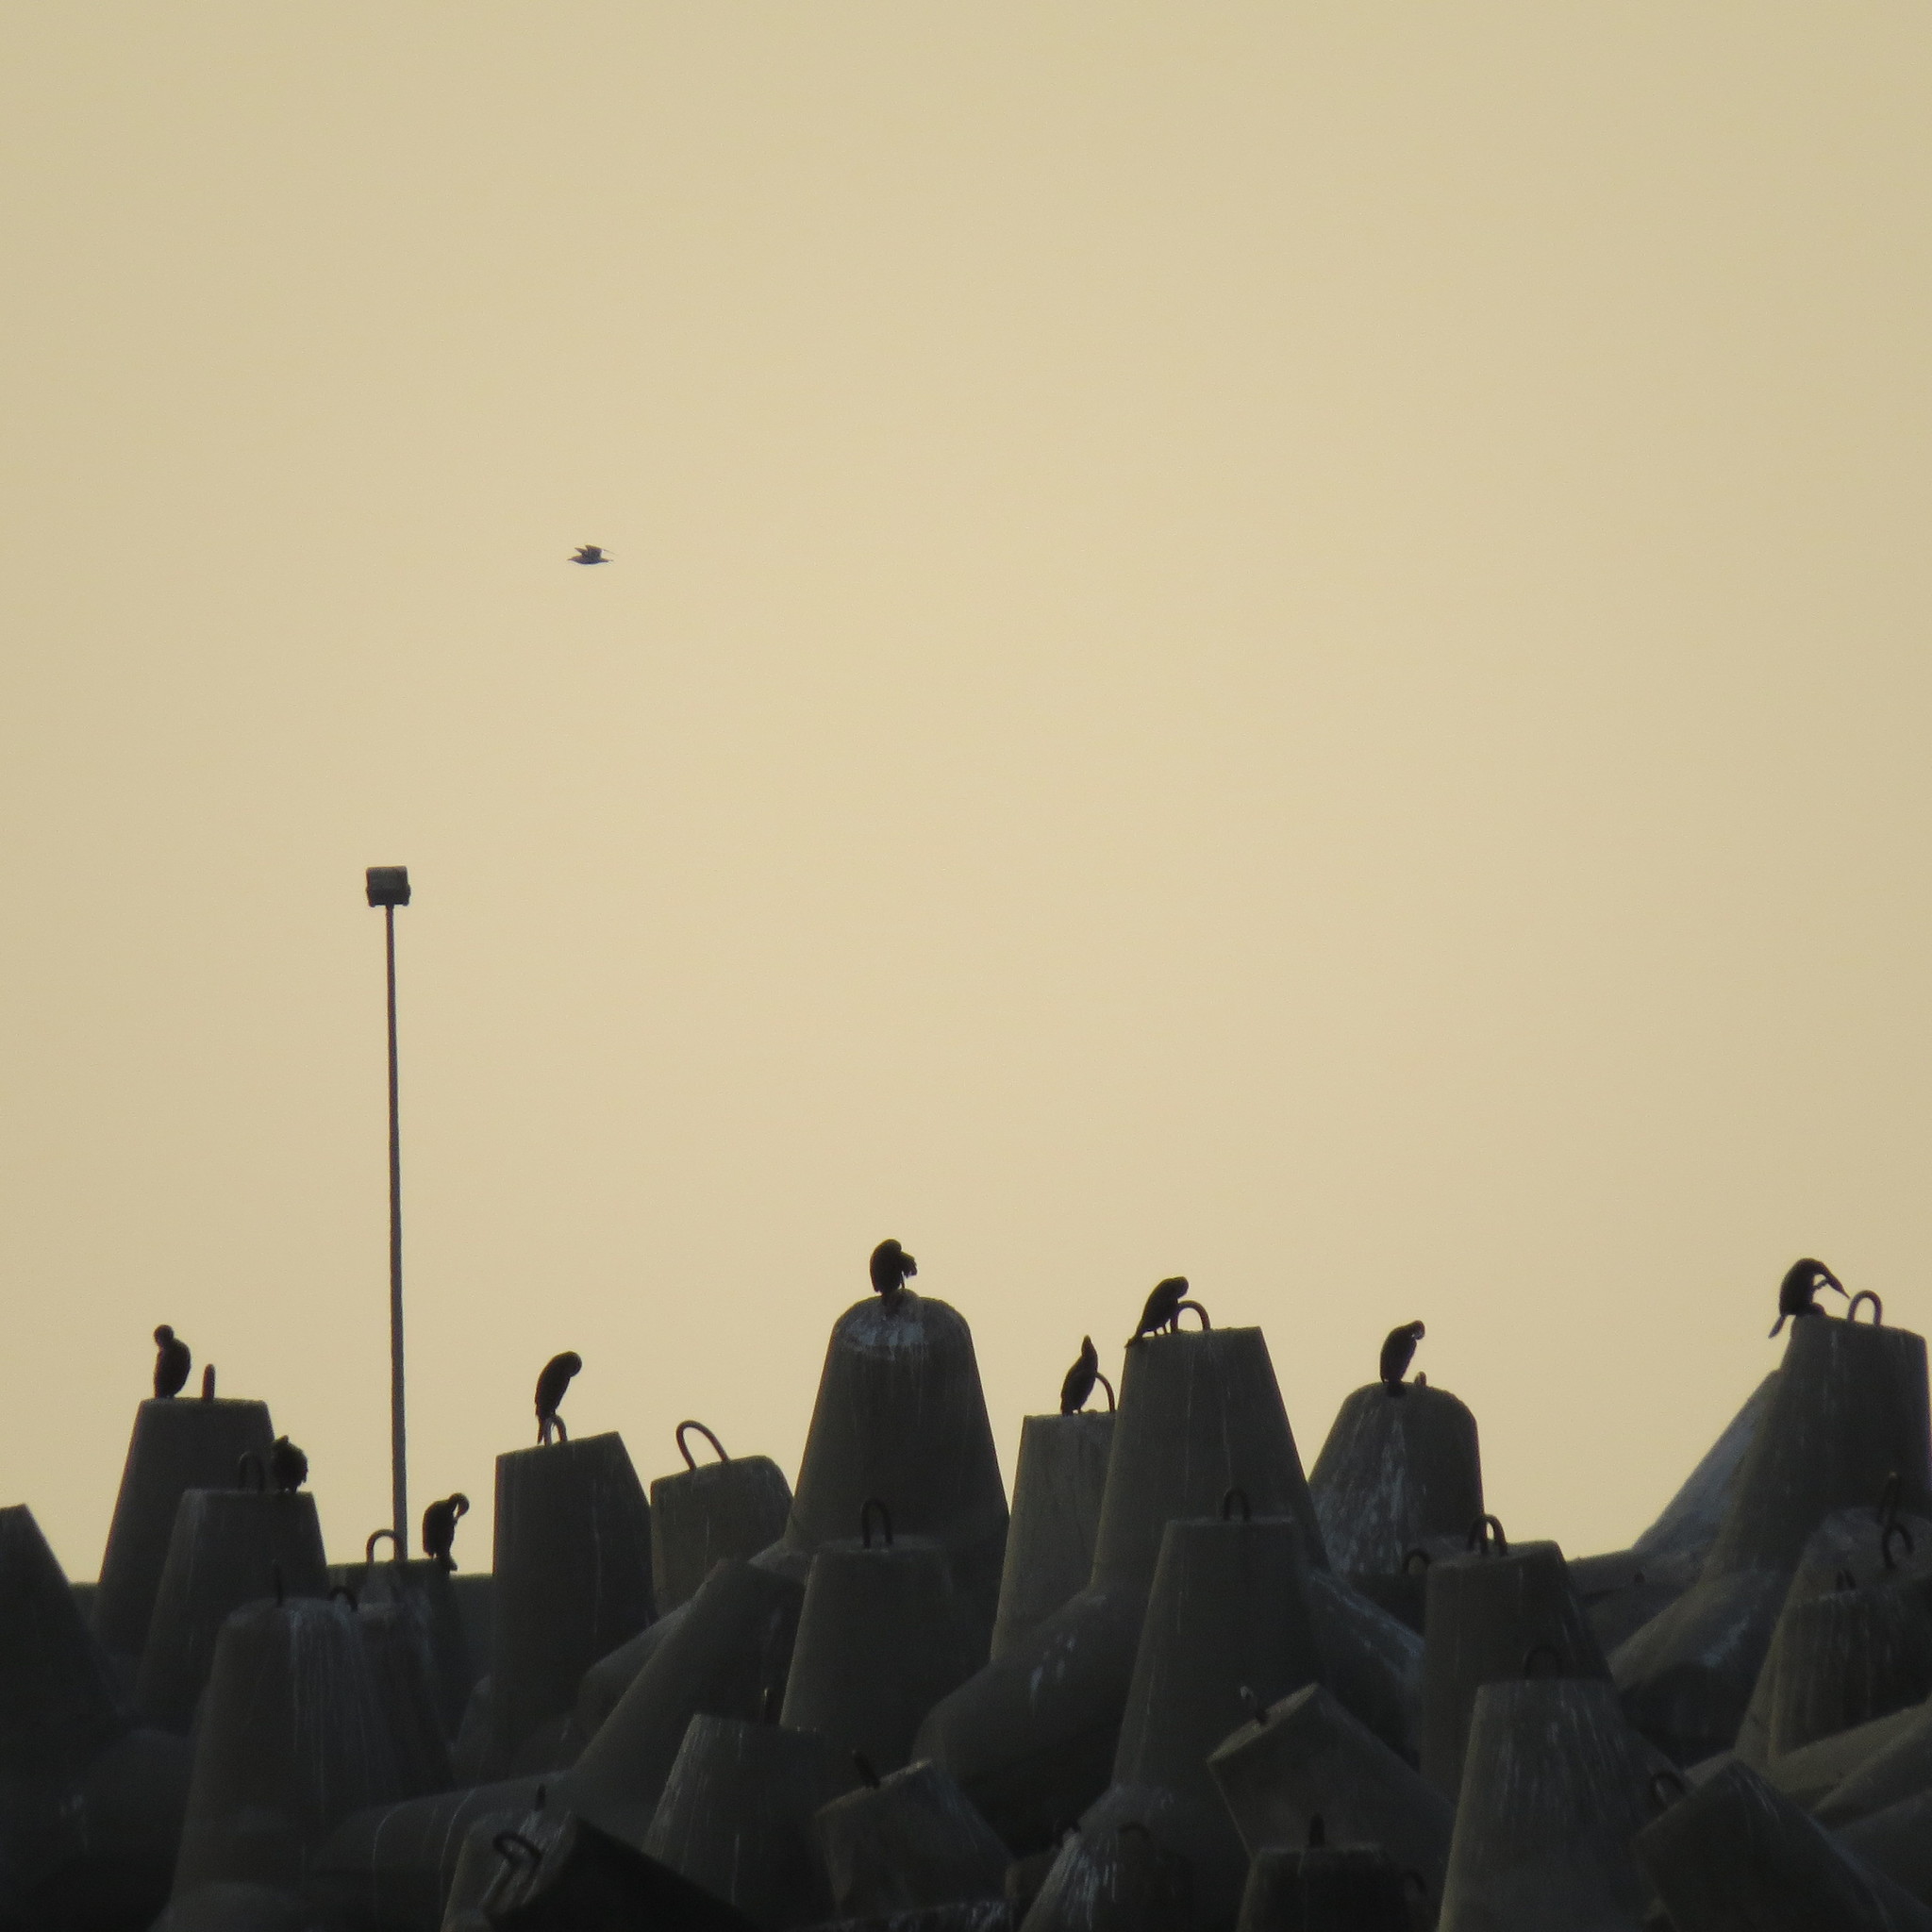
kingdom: Animalia
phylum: Chordata
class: Aves
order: Suliformes
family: Phalacrocoracidae
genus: Phalacrocorax
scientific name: Phalacrocorax carbo
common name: Great cormorant
